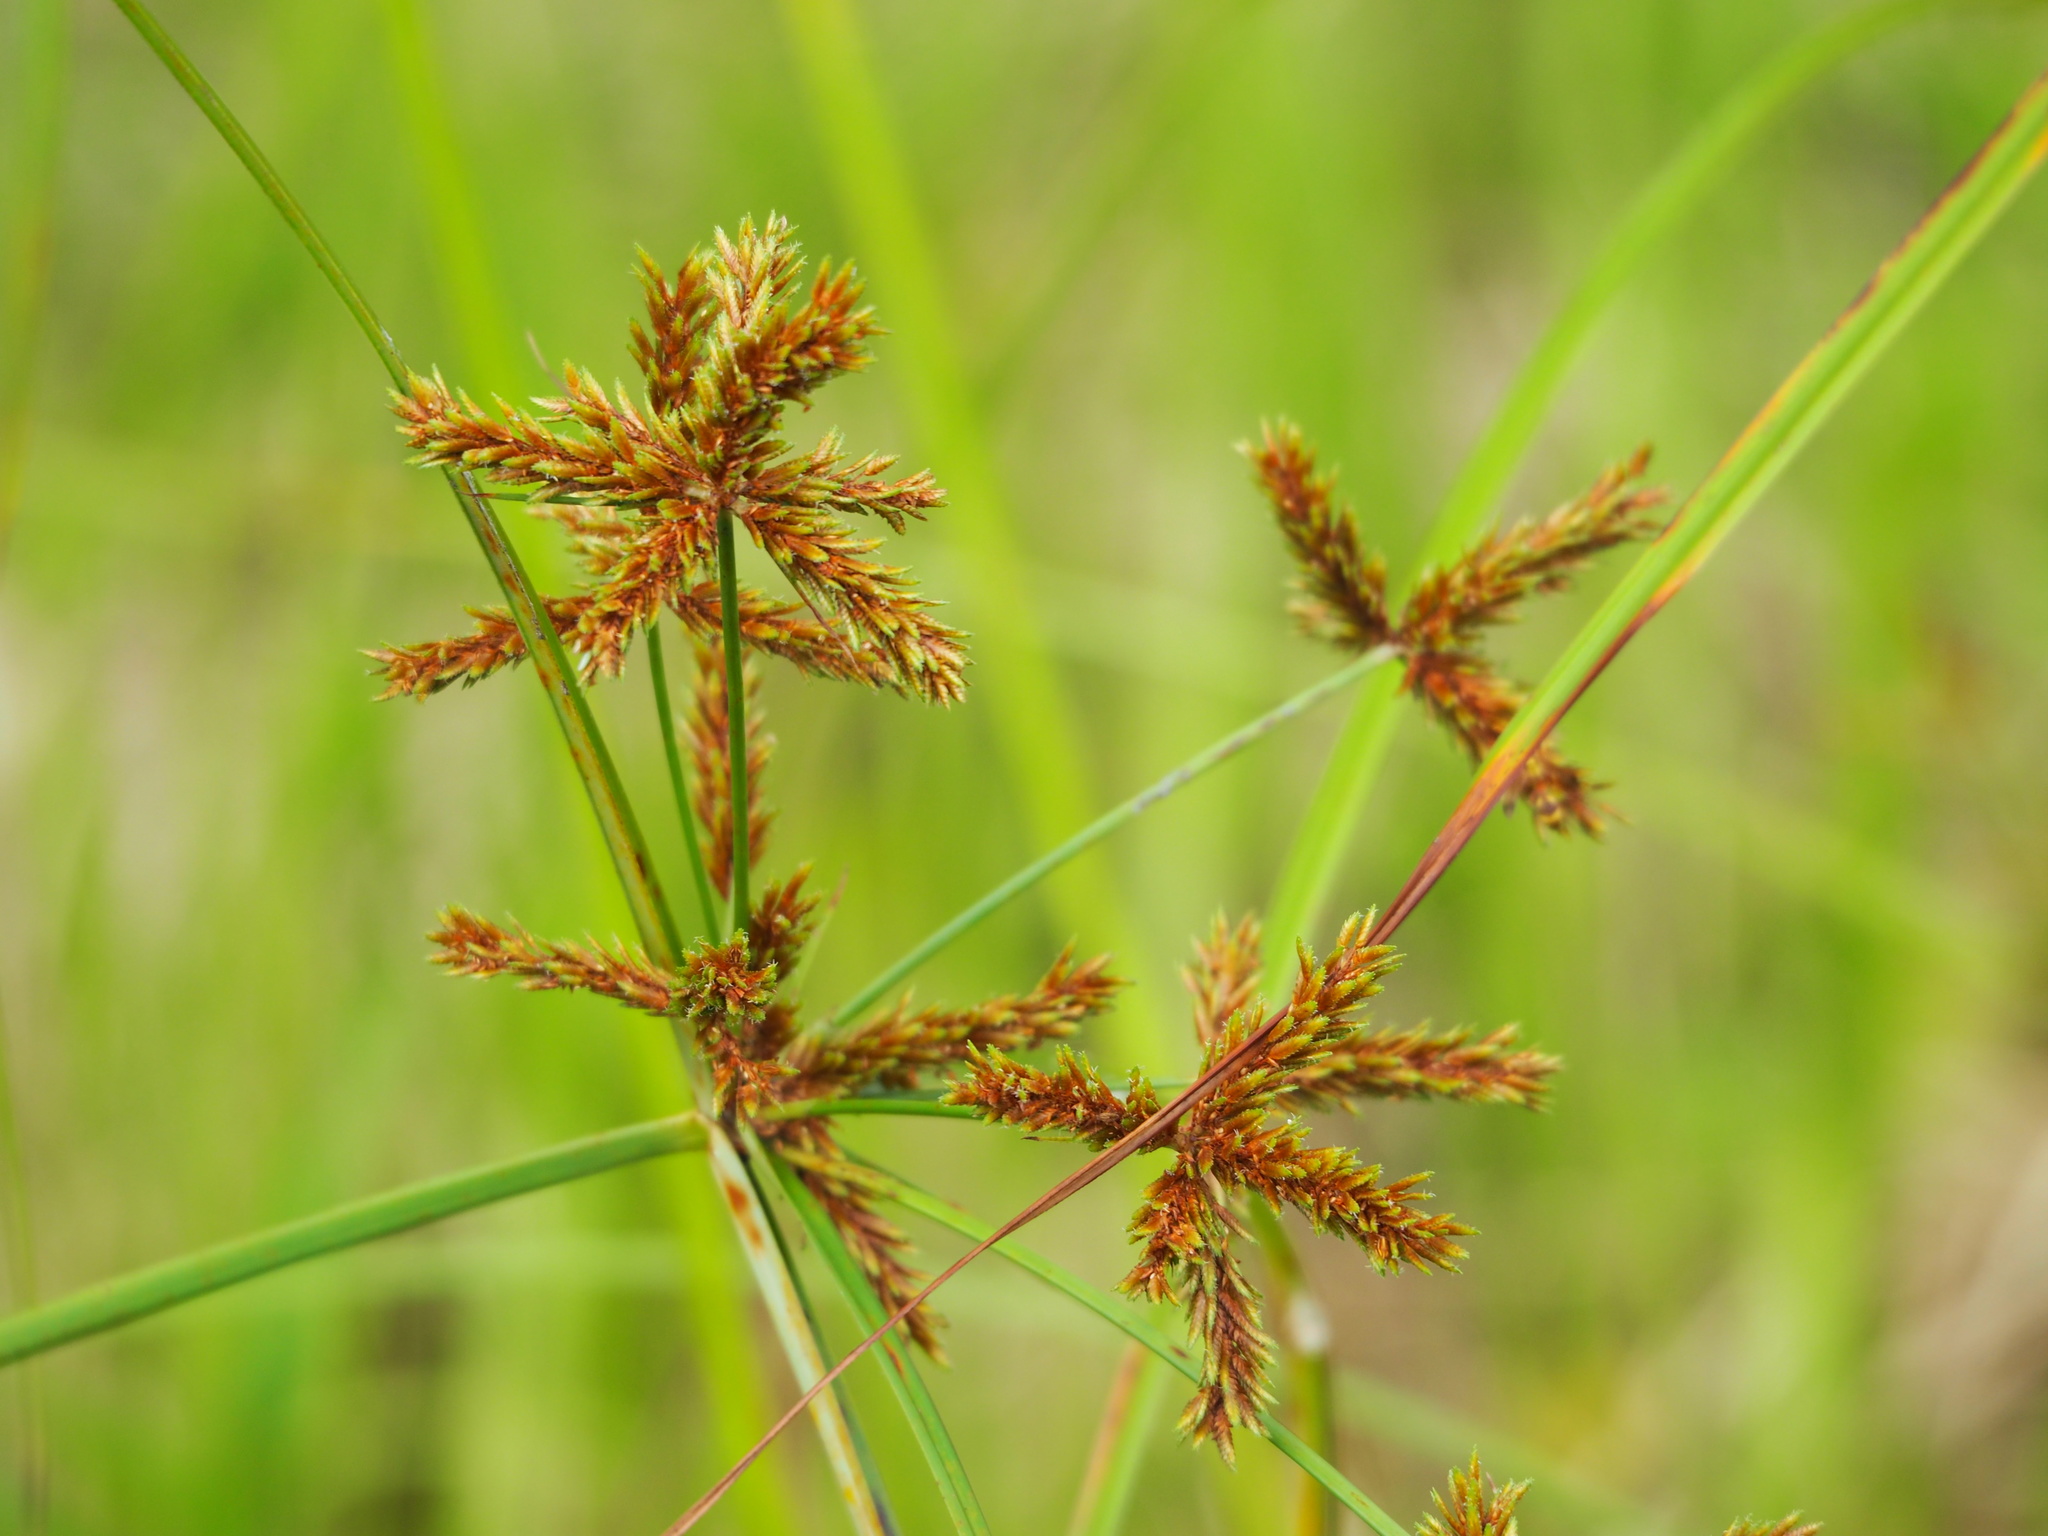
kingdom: Plantae
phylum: Tracheophyta
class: Liliopsida
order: Poales
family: Cyperaceae
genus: Cyperus
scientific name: Cyperus imbricatus
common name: Shingle flatsedge
